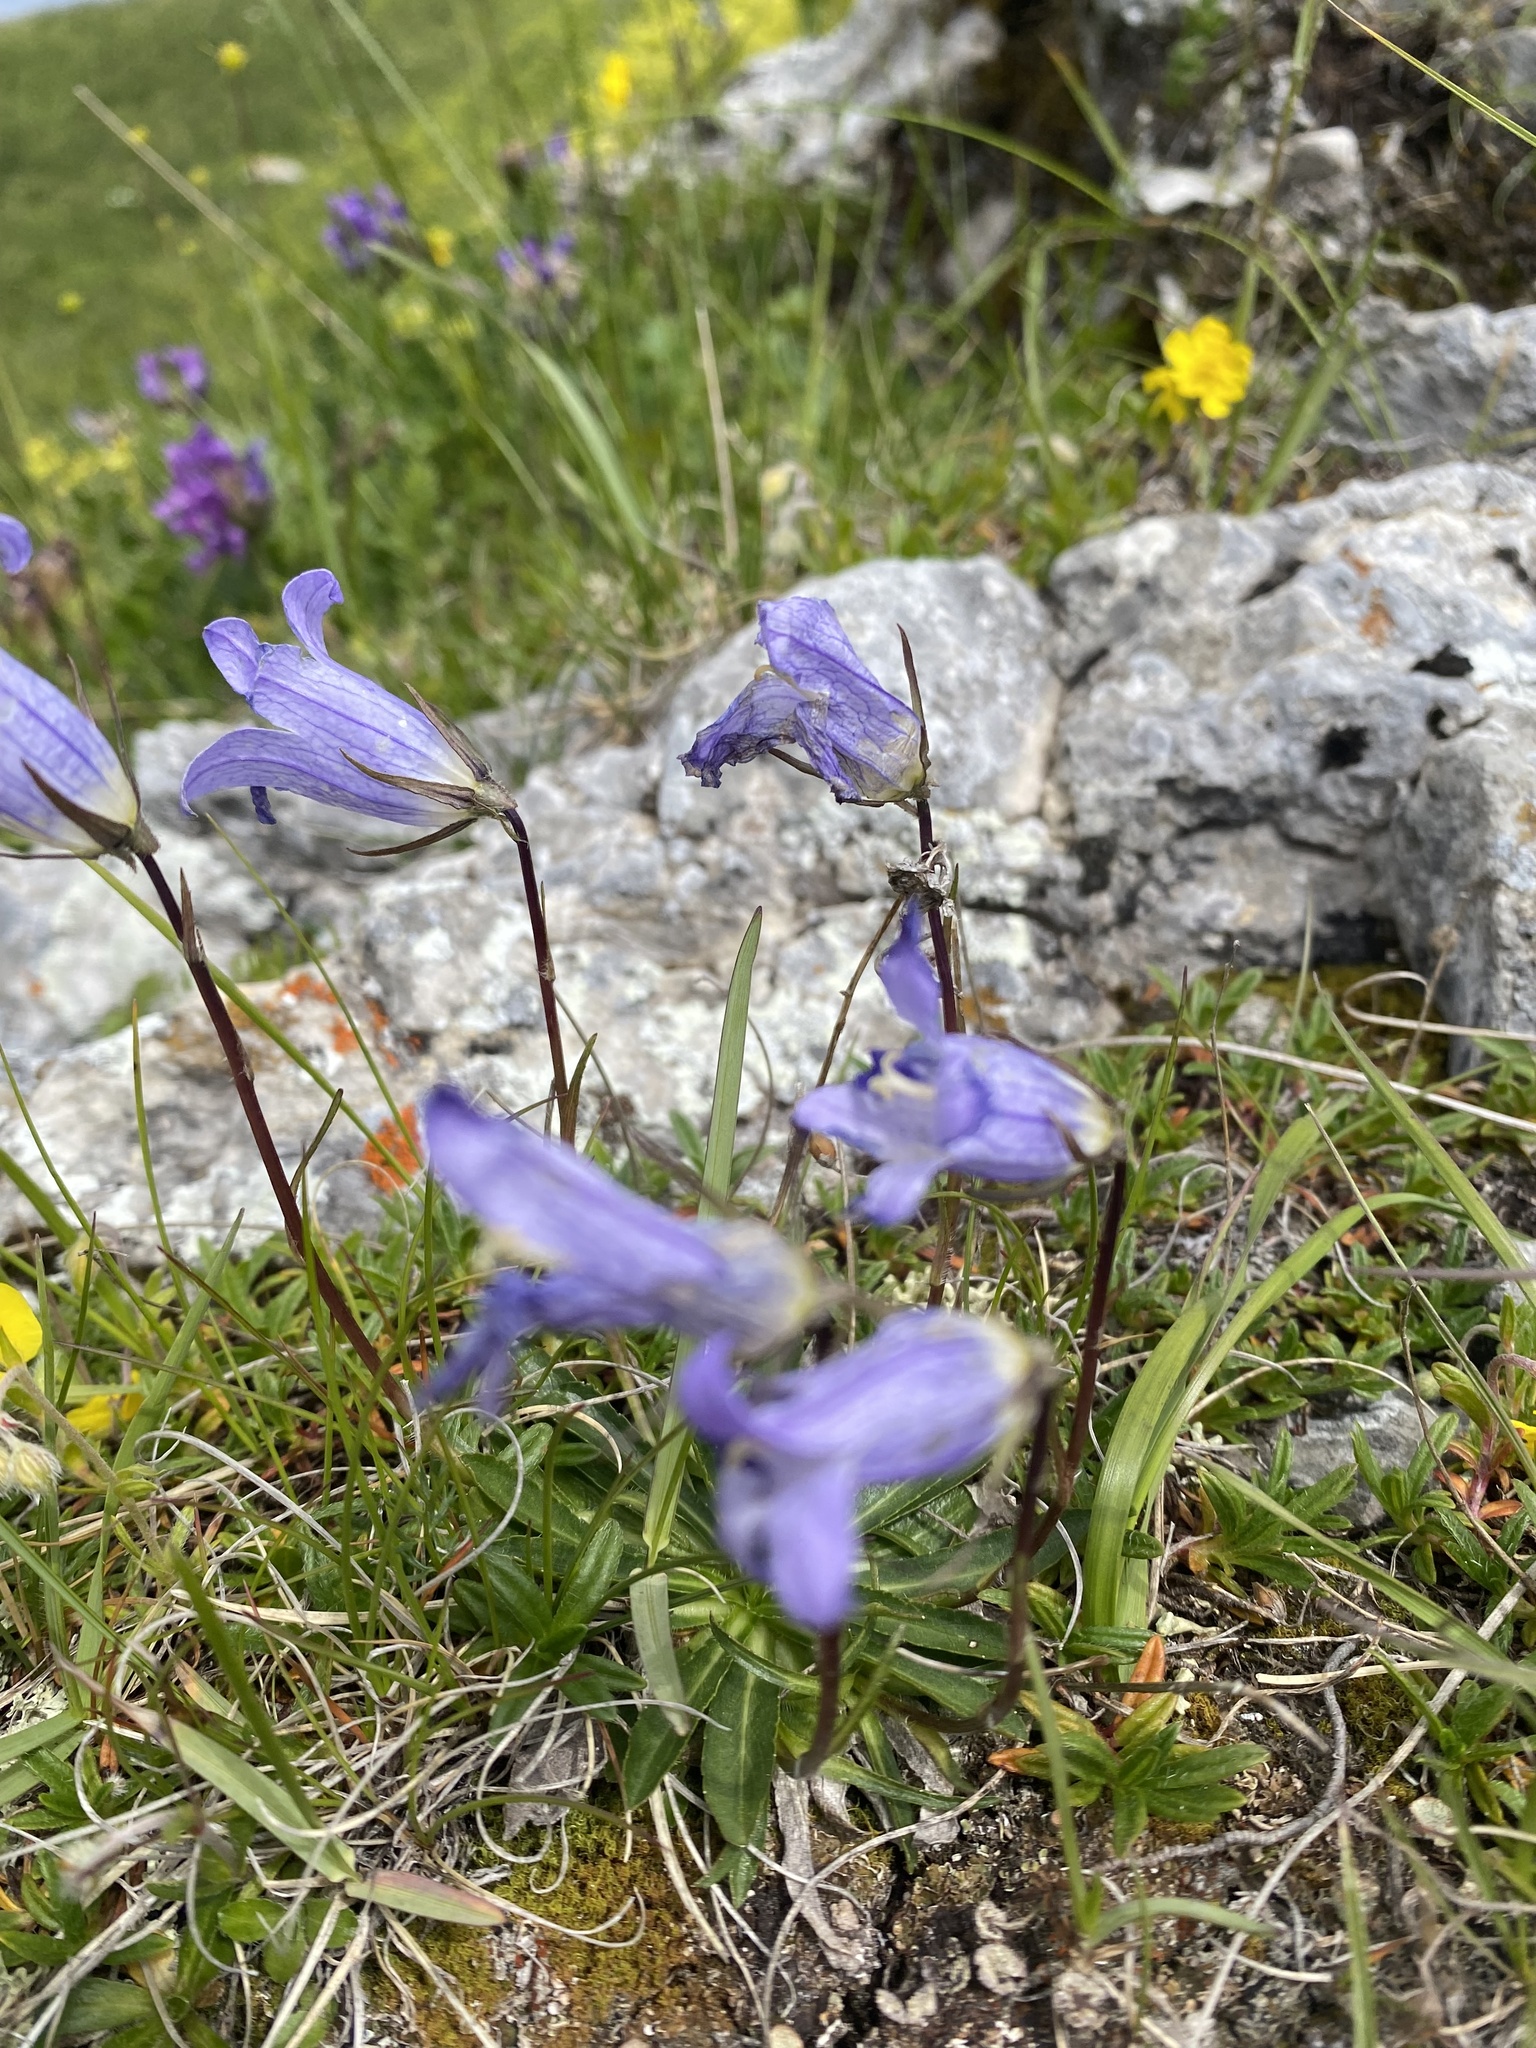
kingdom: Plantae
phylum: Tracheophyta
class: Magnoliopsida
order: Asterales
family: Campanulaceae
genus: Campanula
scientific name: Campanula ciliata
